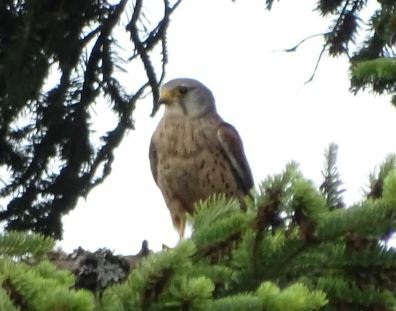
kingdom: Animalia
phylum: Chordata
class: Aves
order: Falconiformes
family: Falconidae
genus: Falco
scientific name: Falco tinnunculus
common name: Common kestrel
